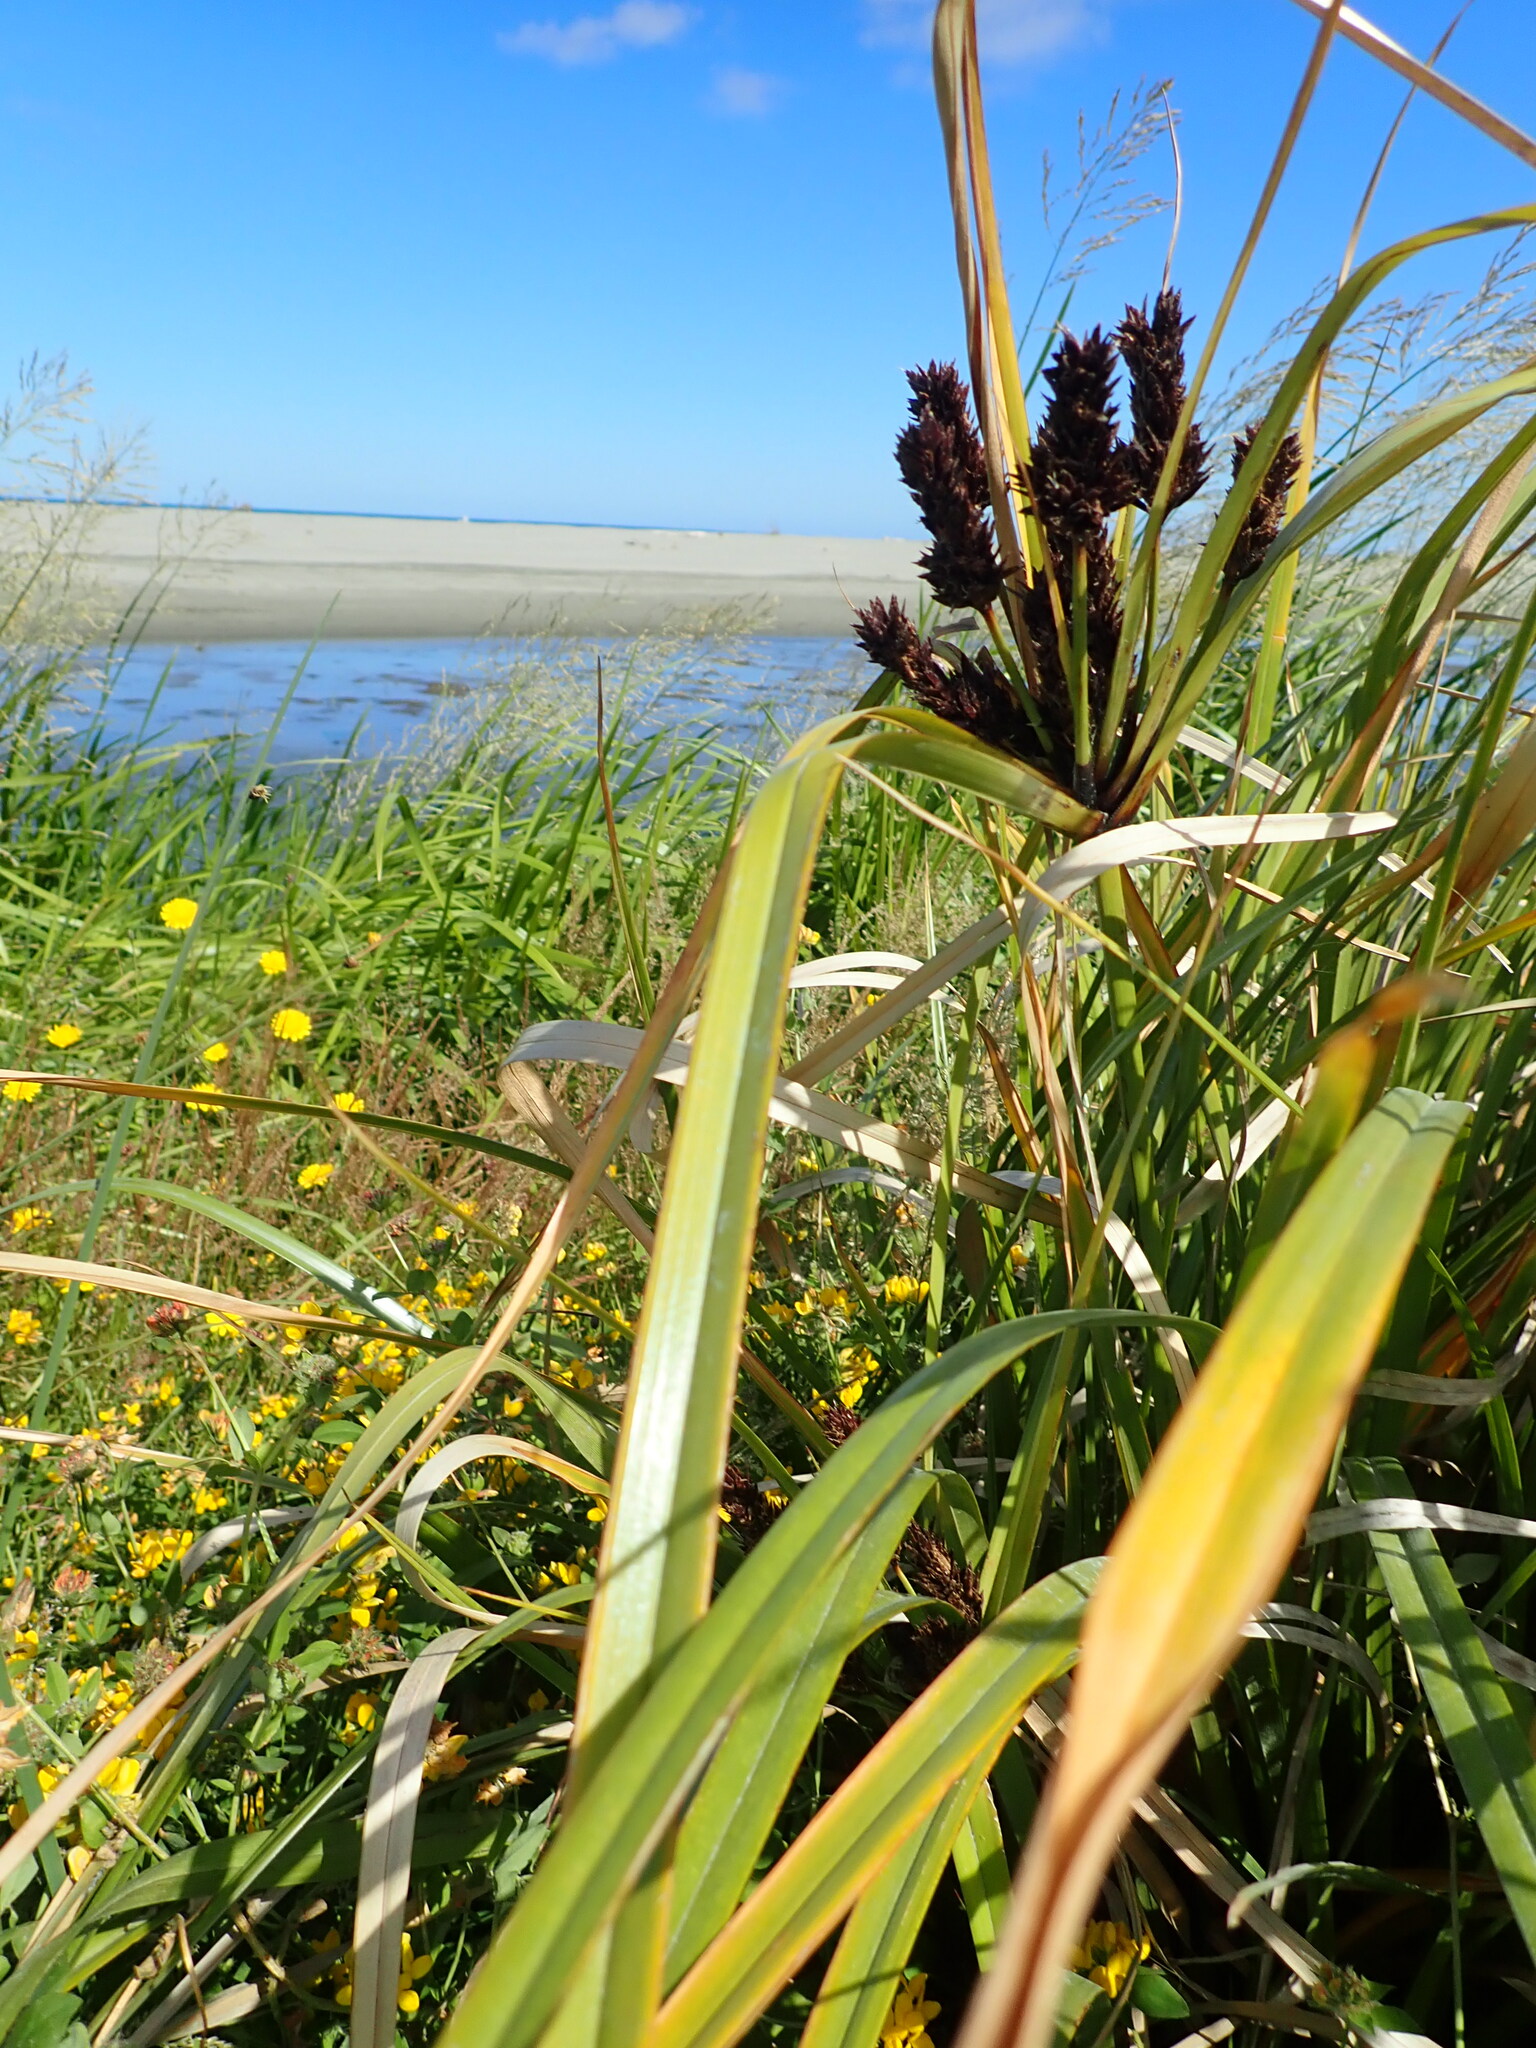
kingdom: Plantae
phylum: Tracheophyta
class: Liliopsida
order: Poales
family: Cyperaceae
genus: Cyperus
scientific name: Cyperus ustulatus
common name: Giant umbrella-sedge
